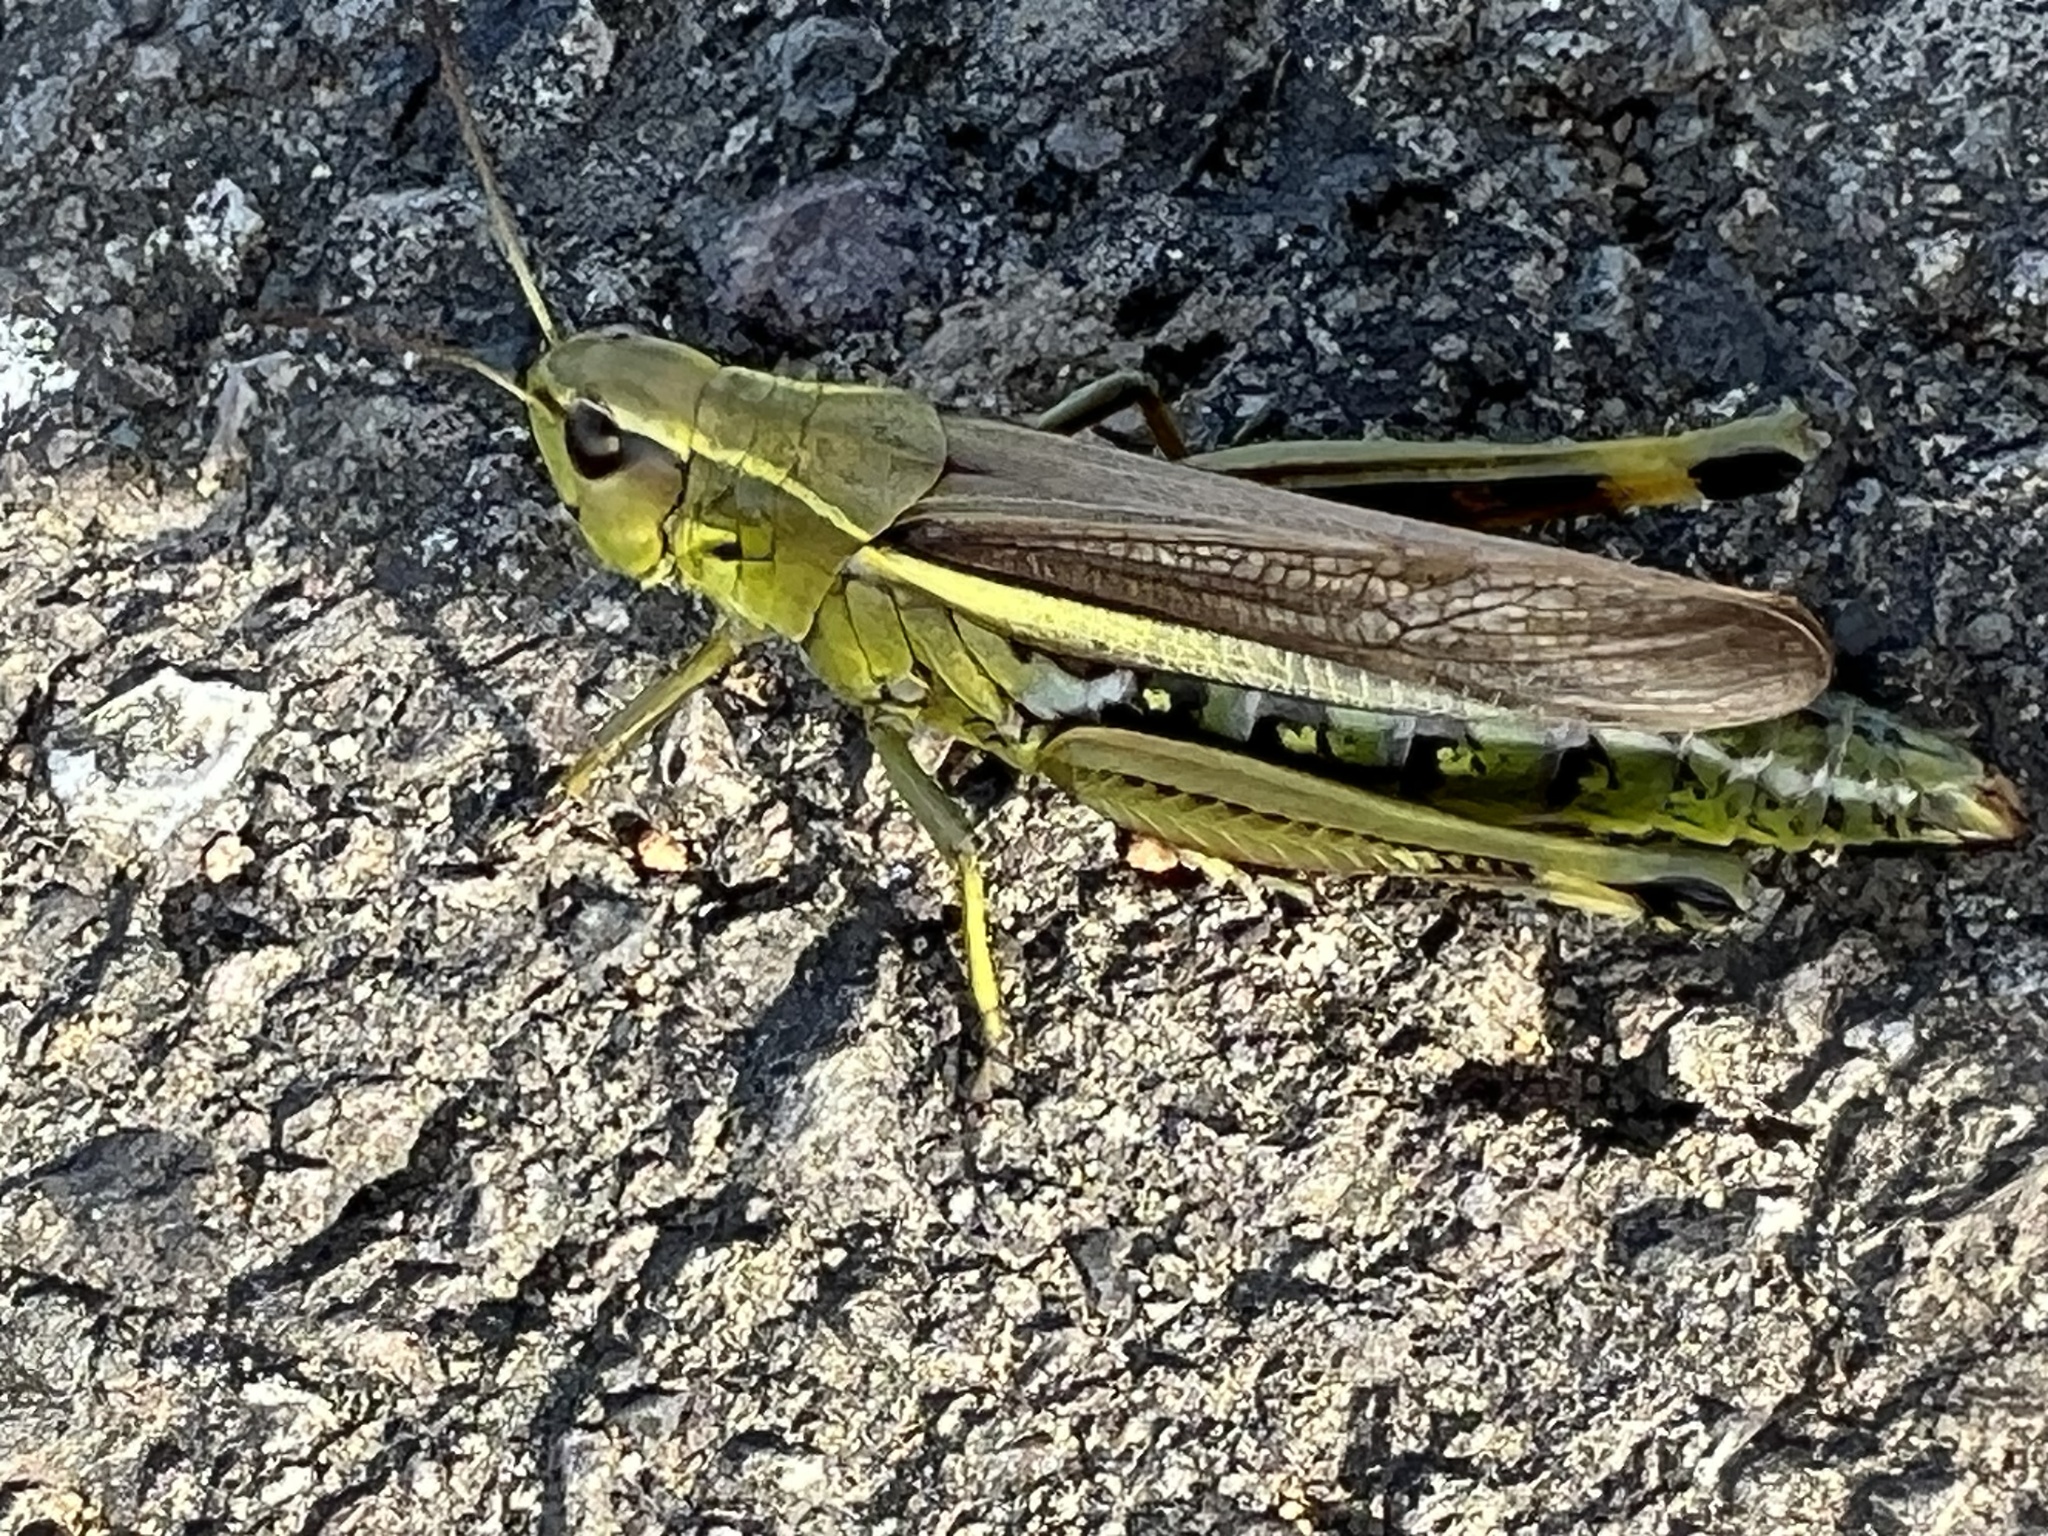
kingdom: Animalia
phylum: Arthropoda
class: Insecta
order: Orthoptera
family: Acrididae
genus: Stethophyma
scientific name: Stethophyma grossum
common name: Large marsh grasshopper
